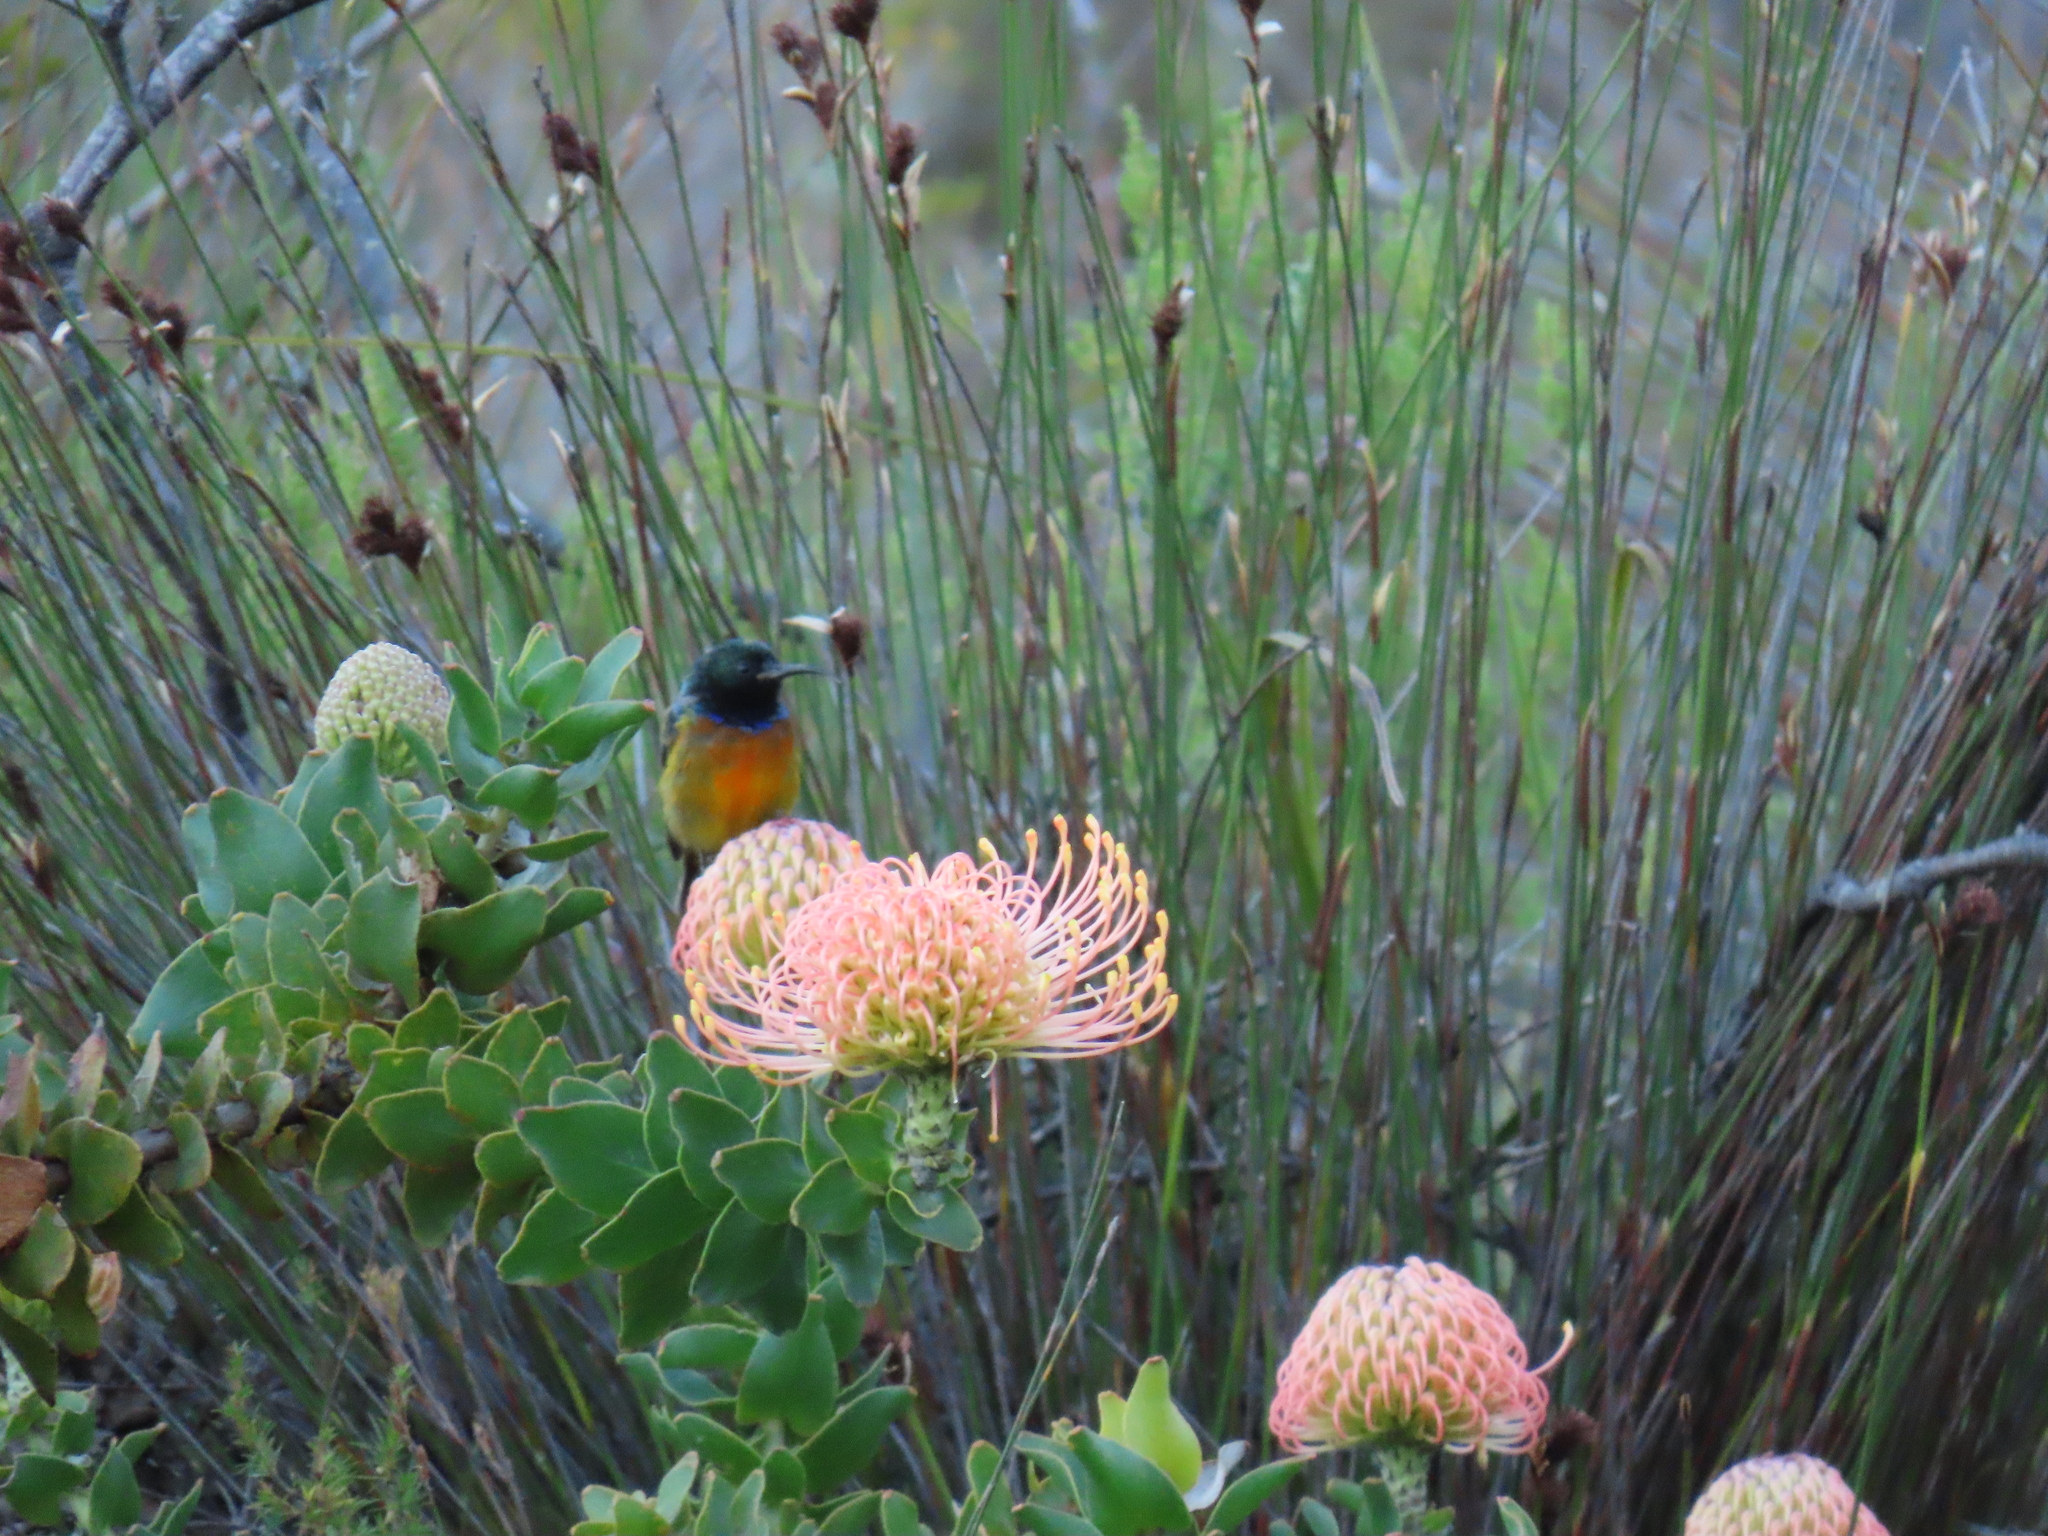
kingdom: Animalia
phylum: Chordata
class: Aves
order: Passeriformes
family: Nectariniidae
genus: Anthobaphes
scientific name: Anthobaphes violacea
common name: Orange-breasted sunbird
